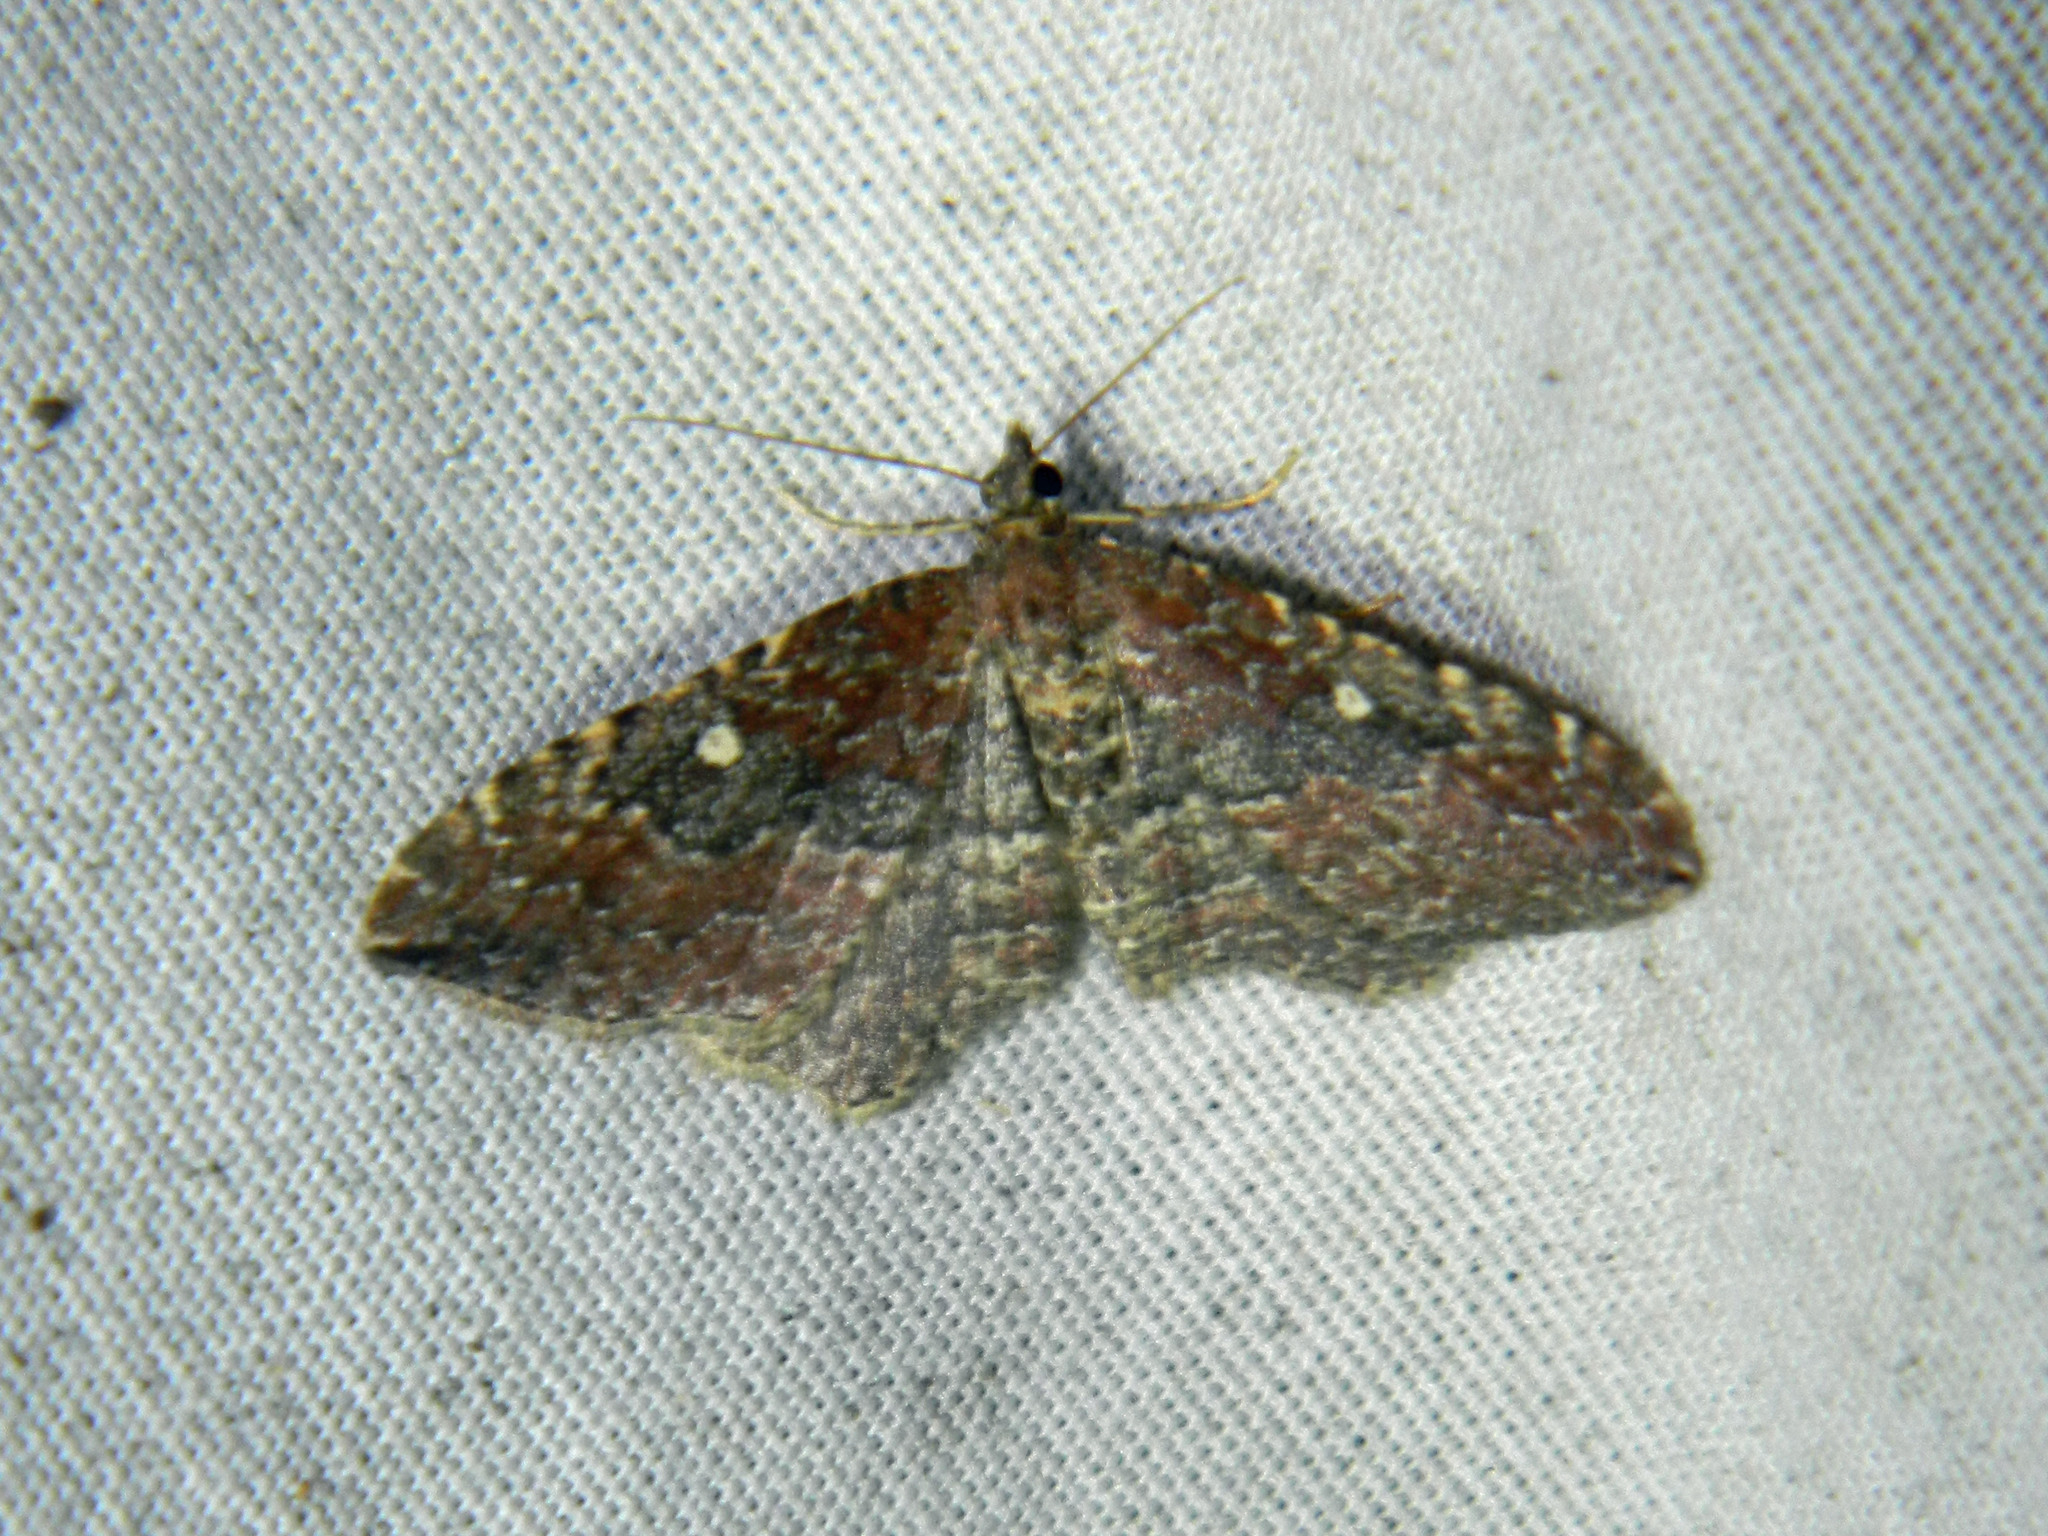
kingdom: Animalia
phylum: Arthropoda
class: Insecta
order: Lepidoptera
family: Geometridae
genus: Orthonama
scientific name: Orthonama obstipata
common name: The gem
